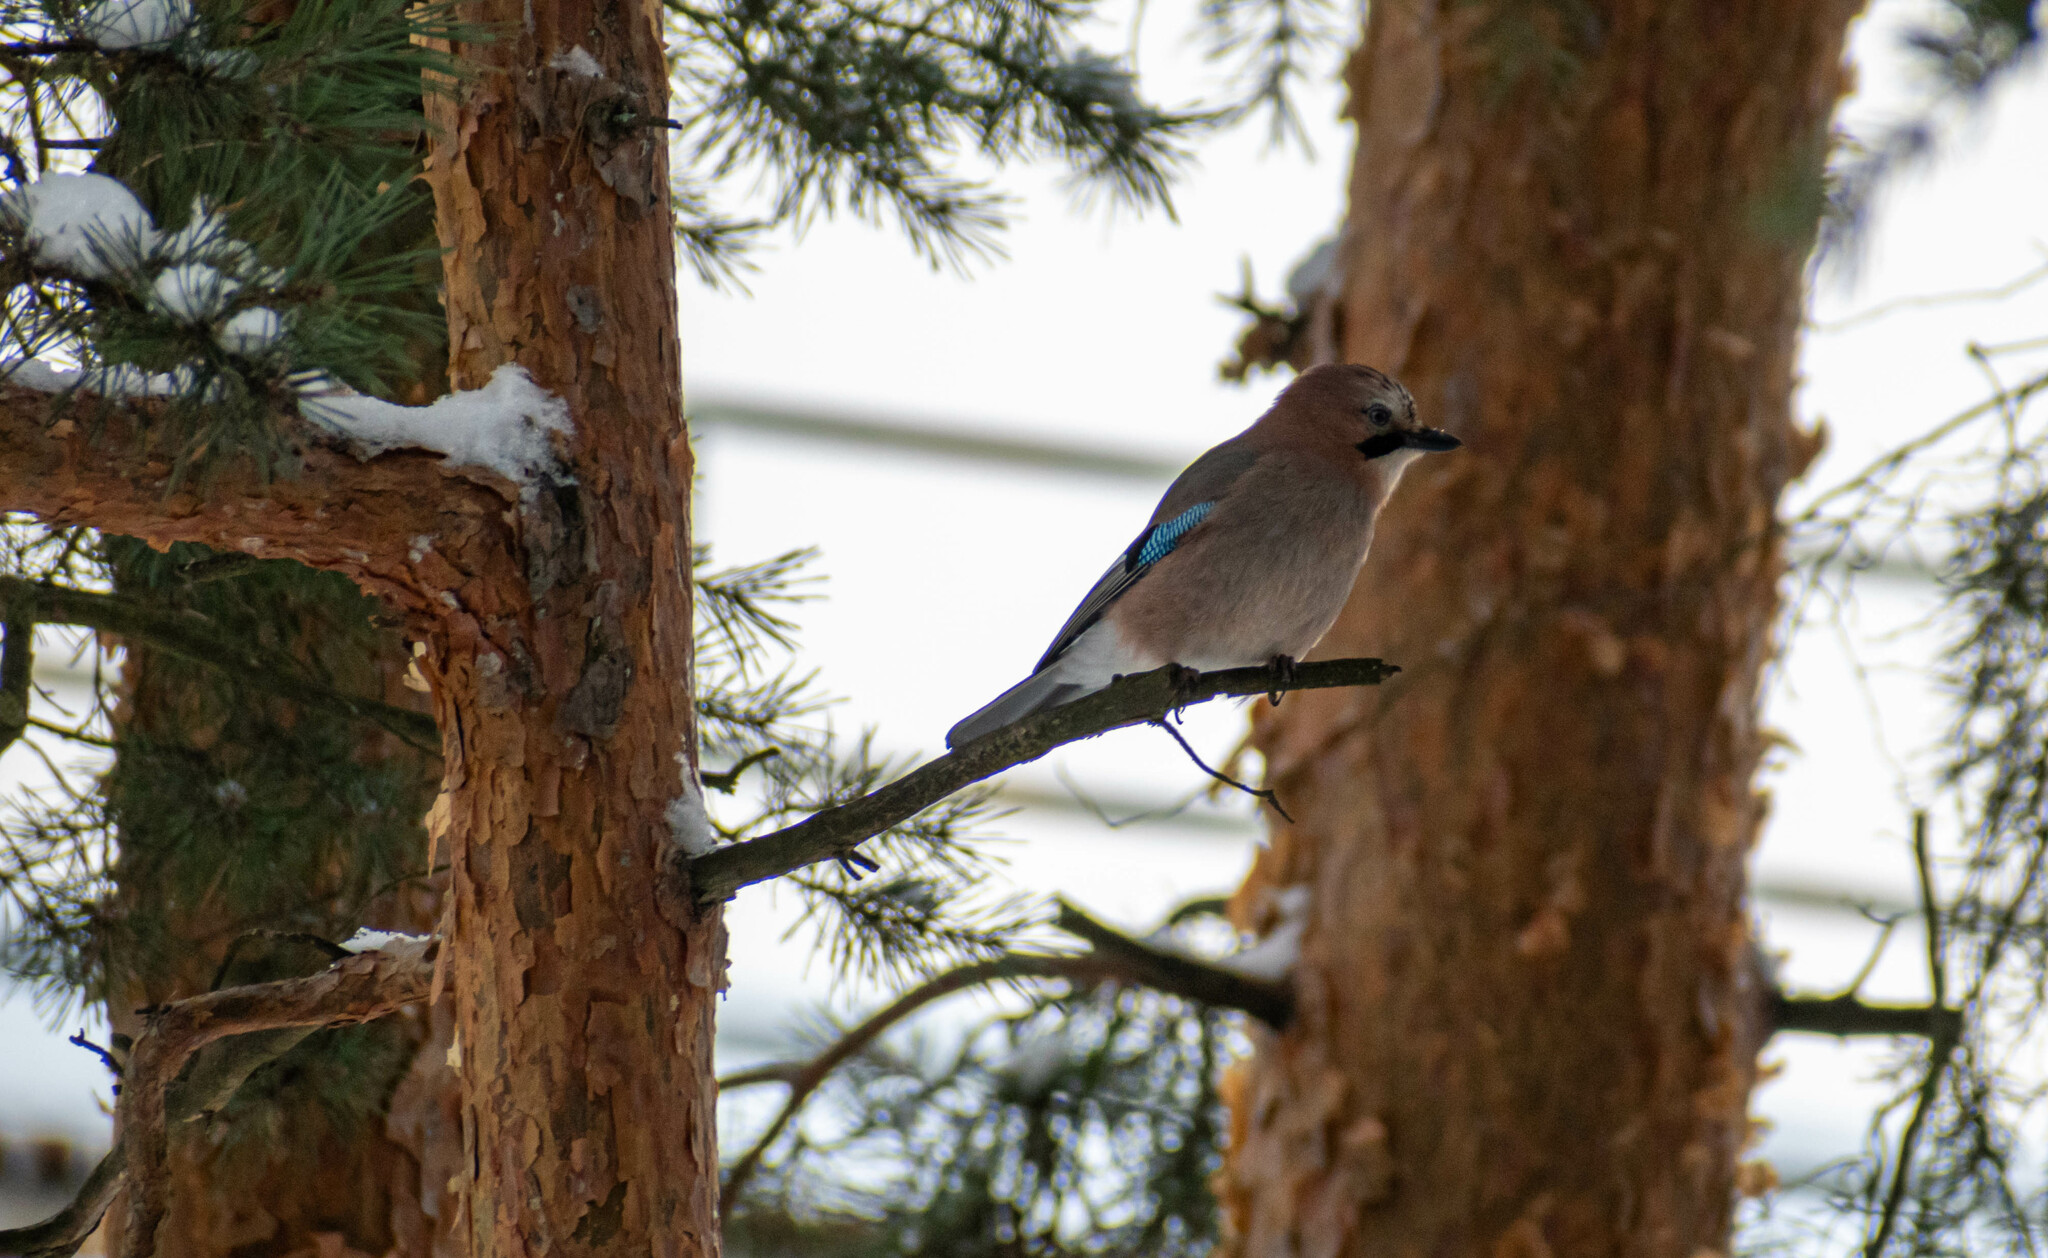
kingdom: Animalia
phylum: Chordata
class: Aves
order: Passeriformes
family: Corvidae
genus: Garrulus
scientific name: Garrulus glandarius
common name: Eurasian jay
